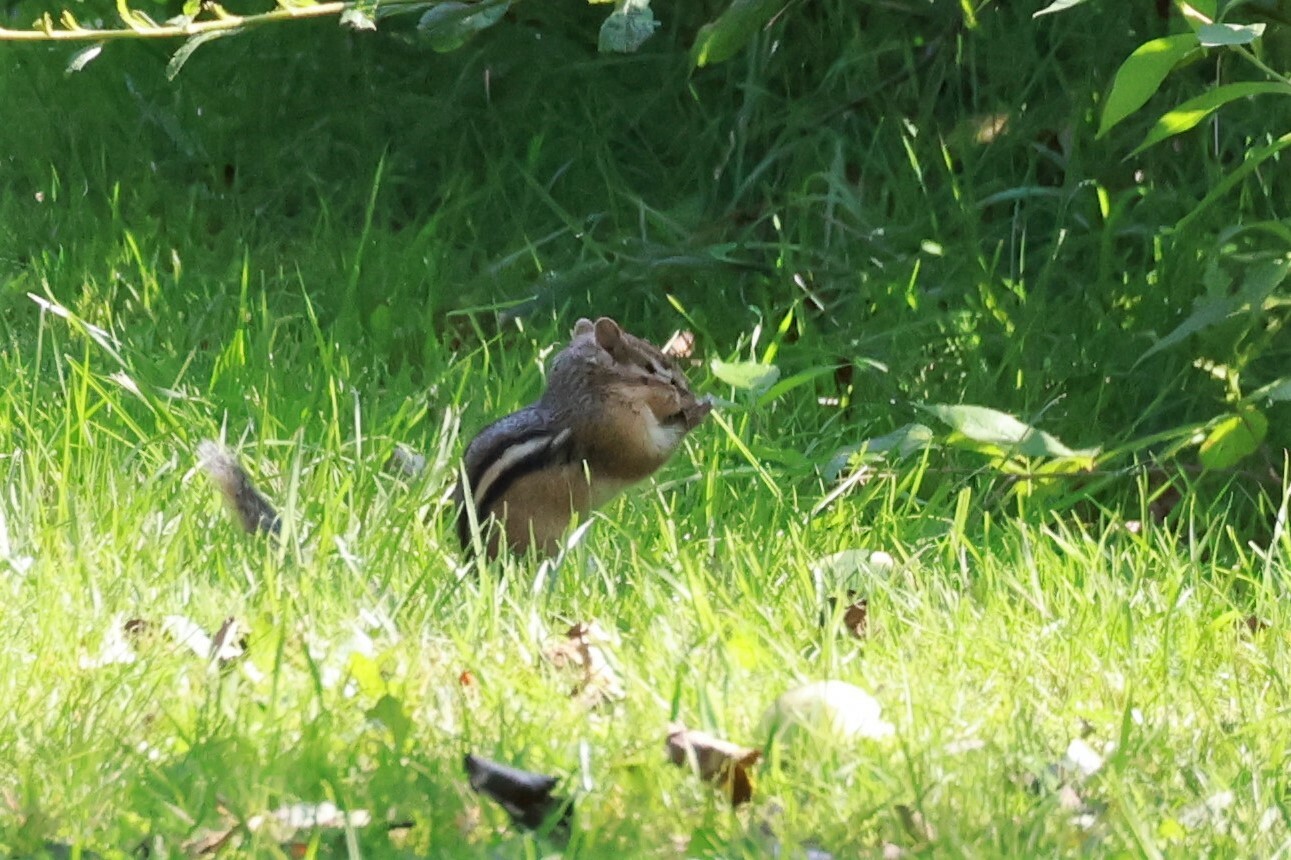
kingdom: Animalia
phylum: Chordata
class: Mammalia
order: Rodentia
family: Sciuridae
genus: Tamias
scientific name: Tamias striatus
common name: Eastern chipmunk
